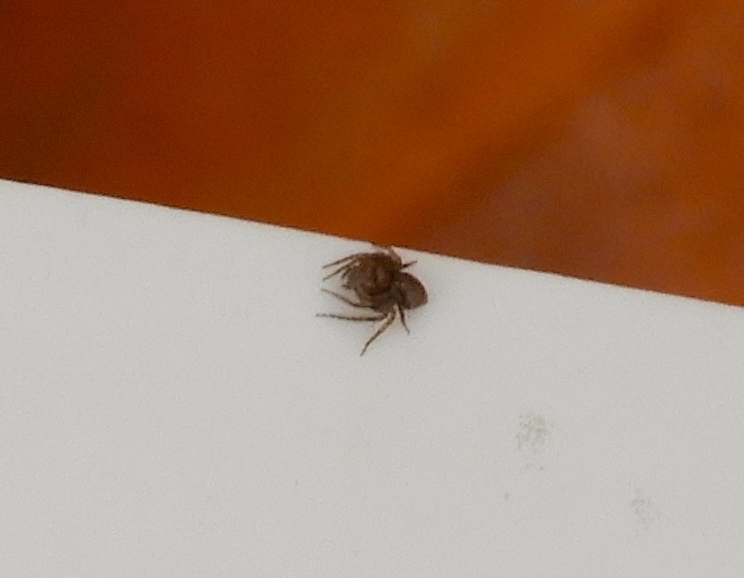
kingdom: Animalia
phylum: Arthropoda
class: Arachnida
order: Araneae
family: Oxyopidae
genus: Hamataliwa
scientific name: Hamataliwa
